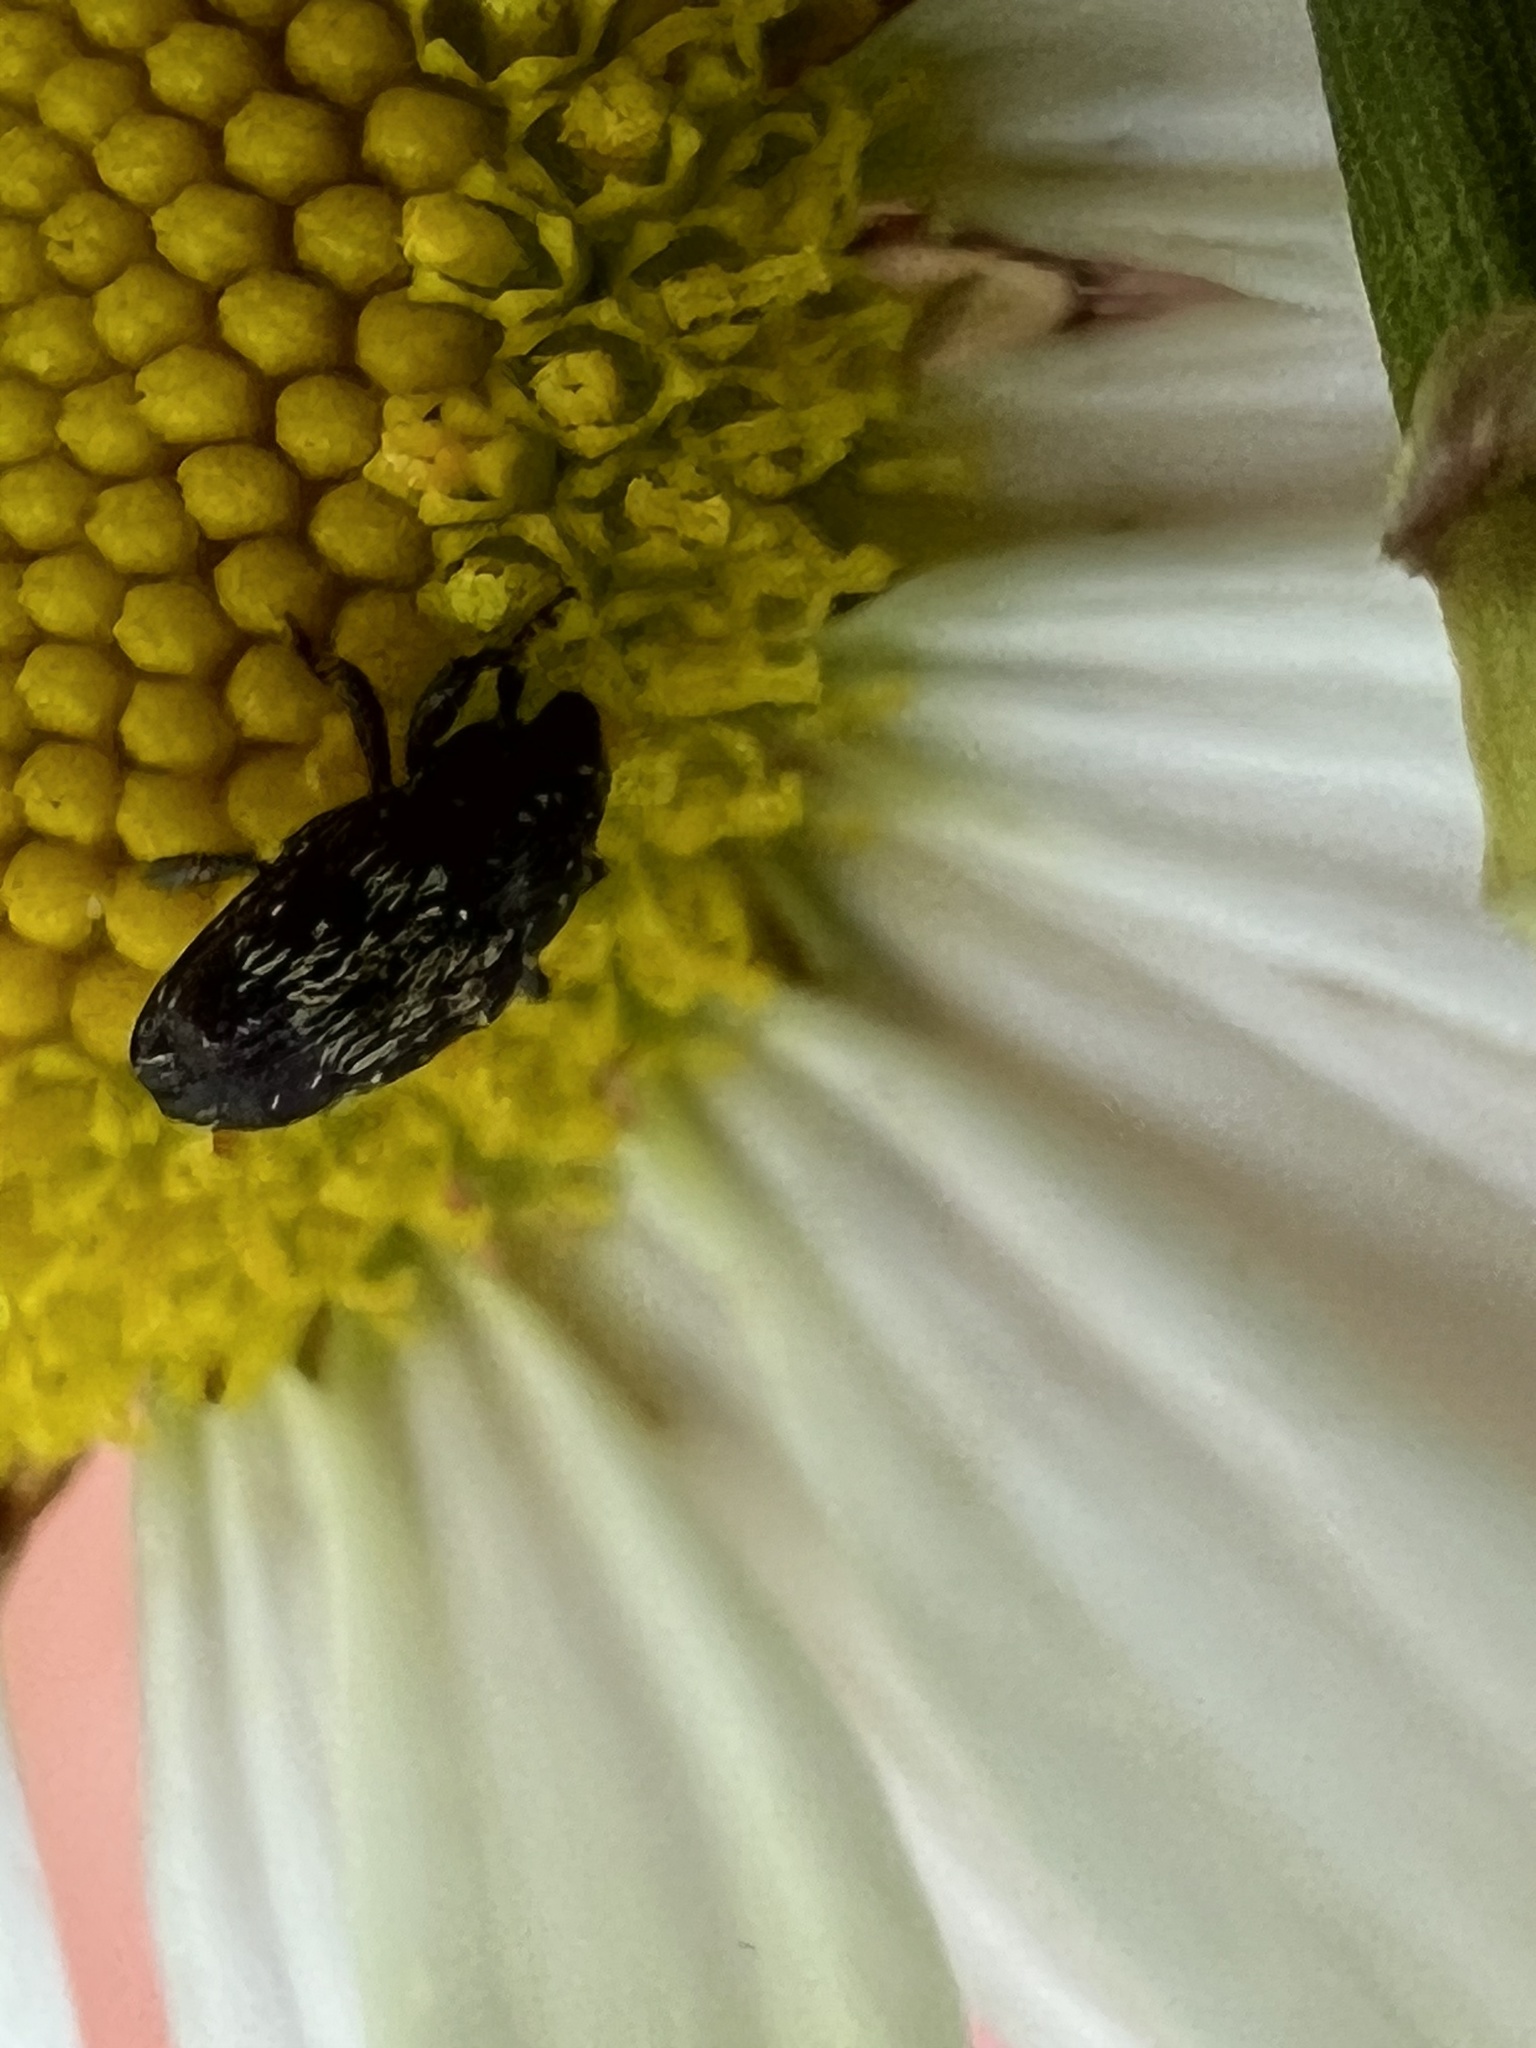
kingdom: Animalia
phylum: Arthropoda
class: Insecta
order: Coleoptera
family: Curculionidae
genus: Glyptobaris
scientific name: Glyptobaris lecontei
